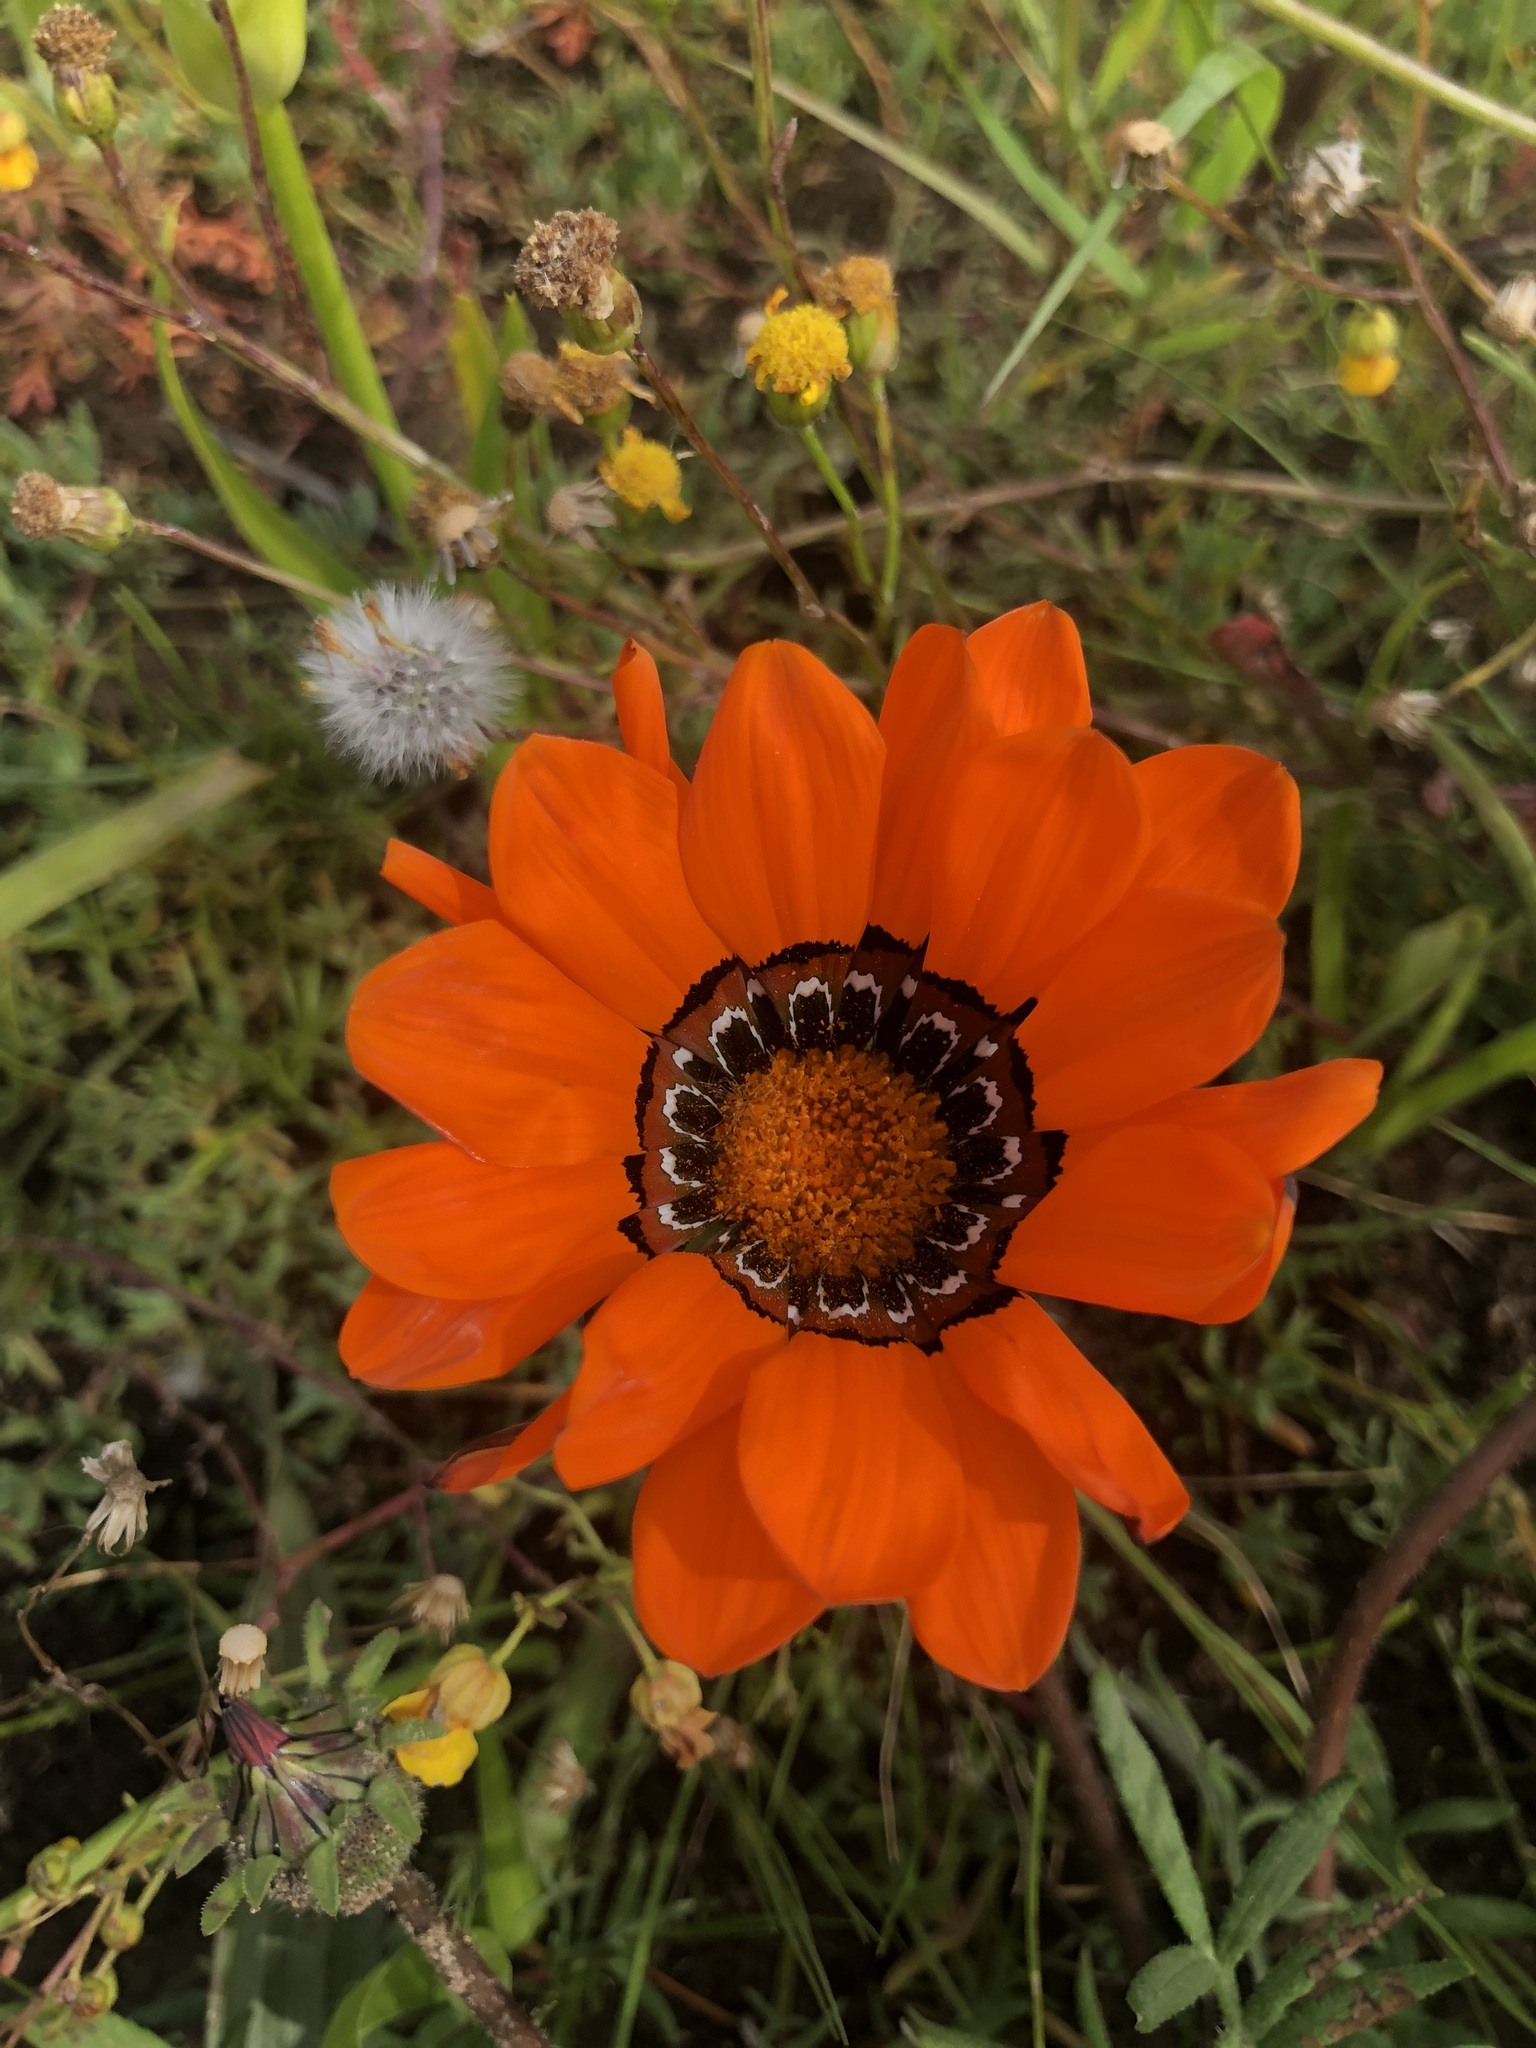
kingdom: Plantae
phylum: Tracheophyta
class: Magnoliopsida
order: Asterales
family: Asteraceae
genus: Gazania
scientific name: Gazania pectinata
